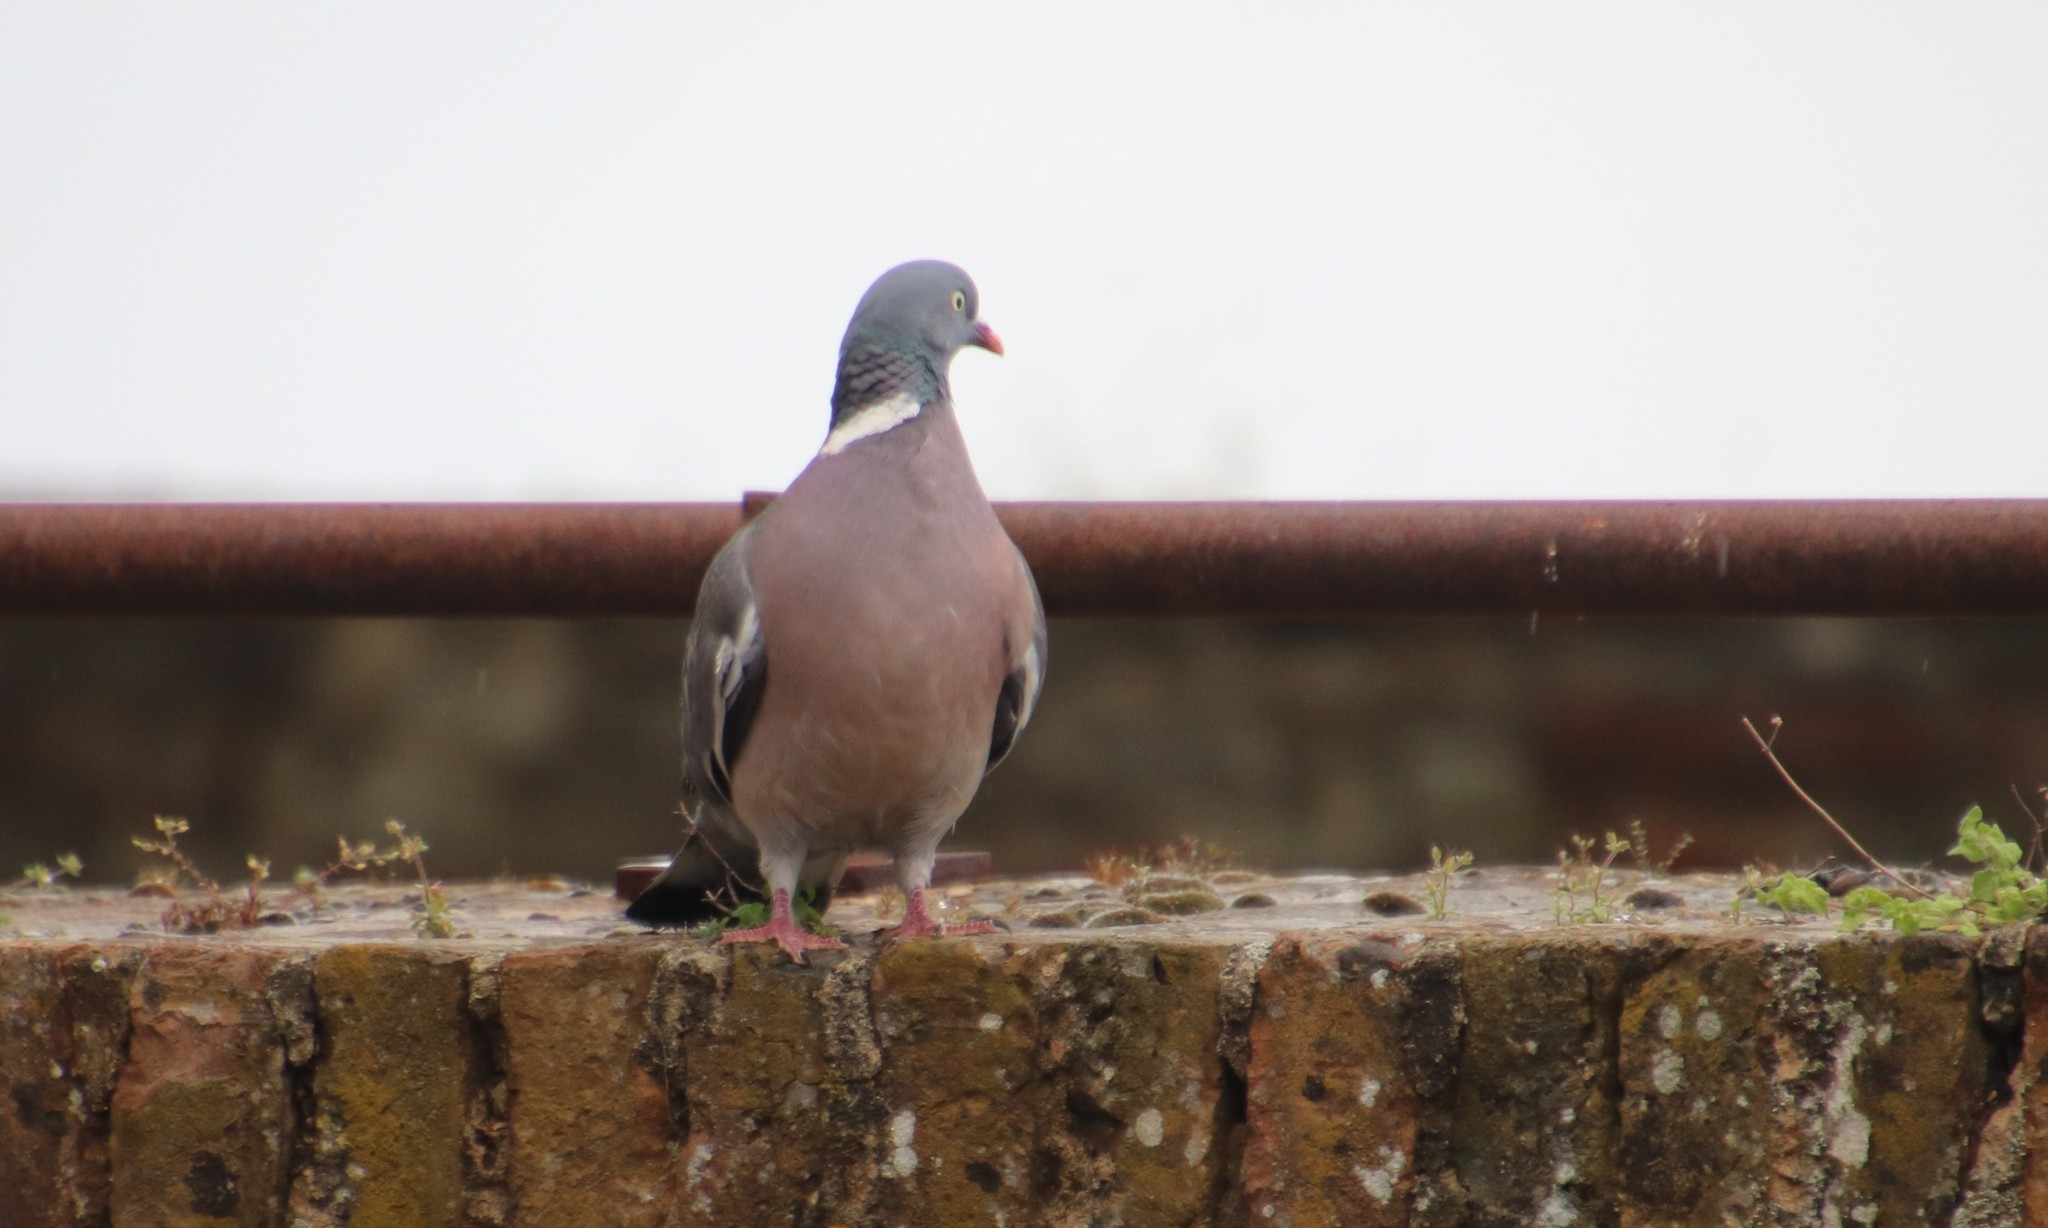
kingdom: Animalia
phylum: Chordata
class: Aves
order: Columbiformes
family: Columbidae
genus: Columba
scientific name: Columba palumbus
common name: Common wood pigeon
